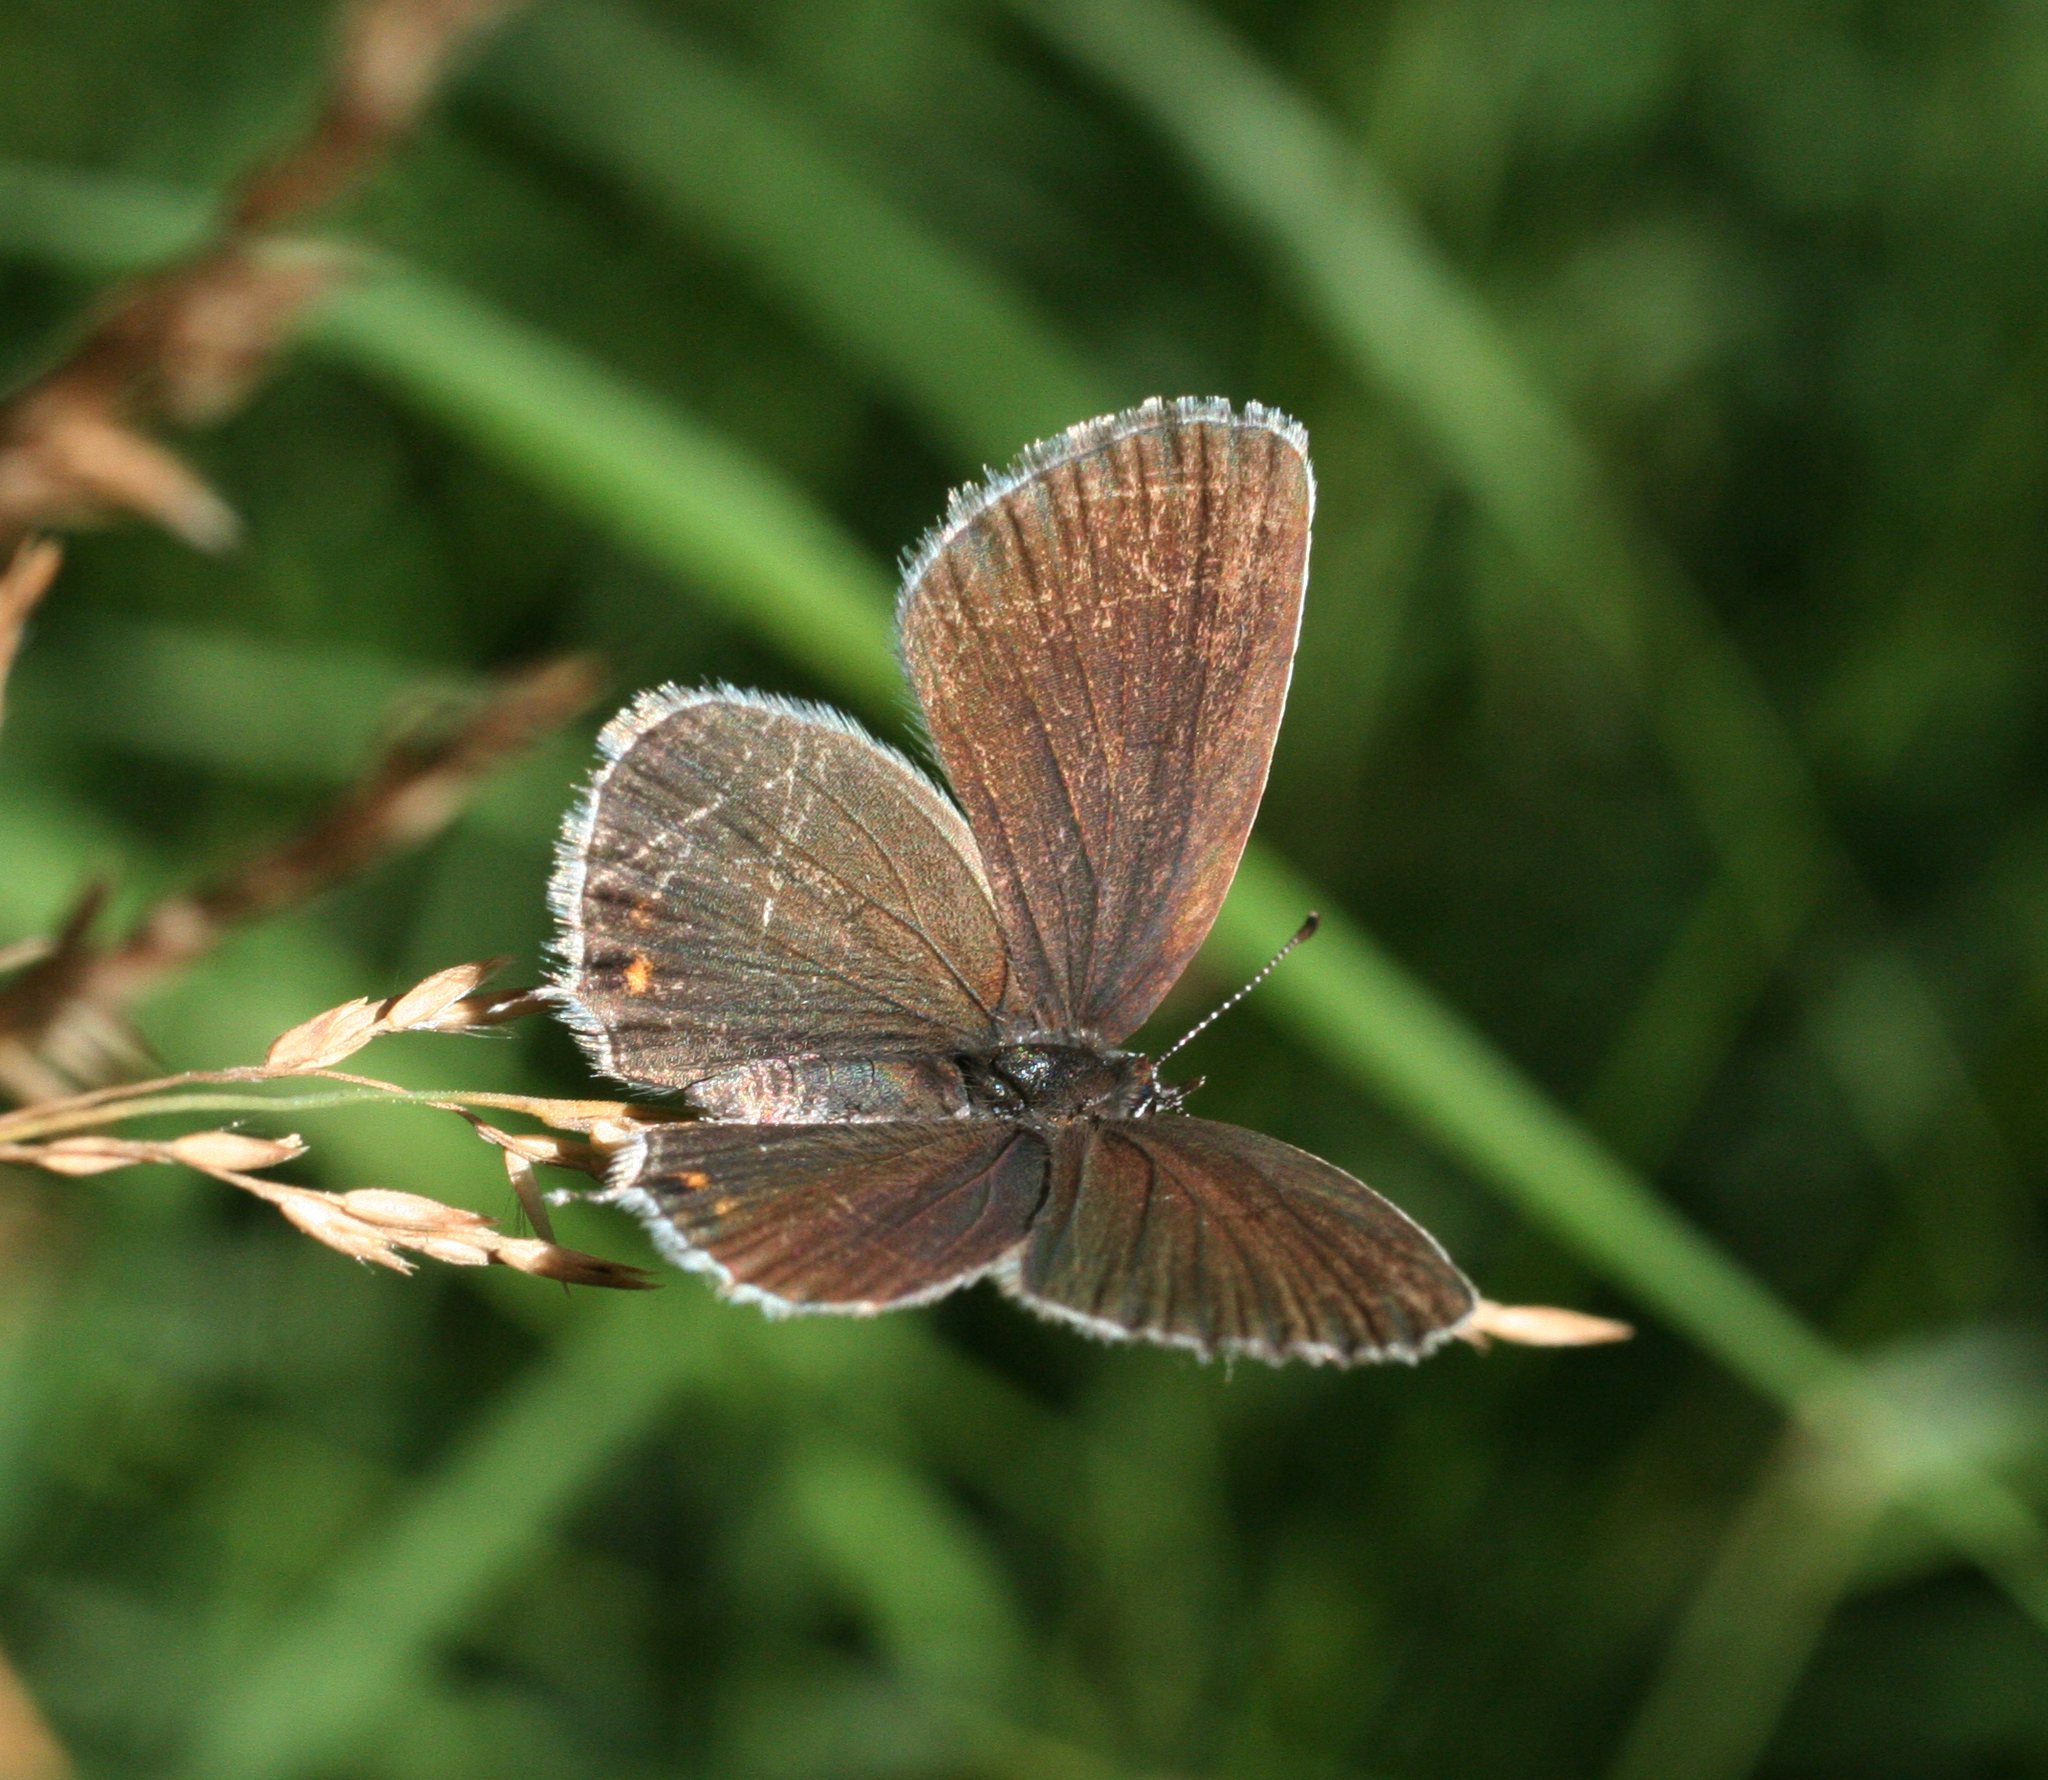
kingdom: Animalia
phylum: Arthropoda
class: Insecta
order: Lepidoptera
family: Lycaenidae
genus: Elkalyce
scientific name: Elkalyce argiades
